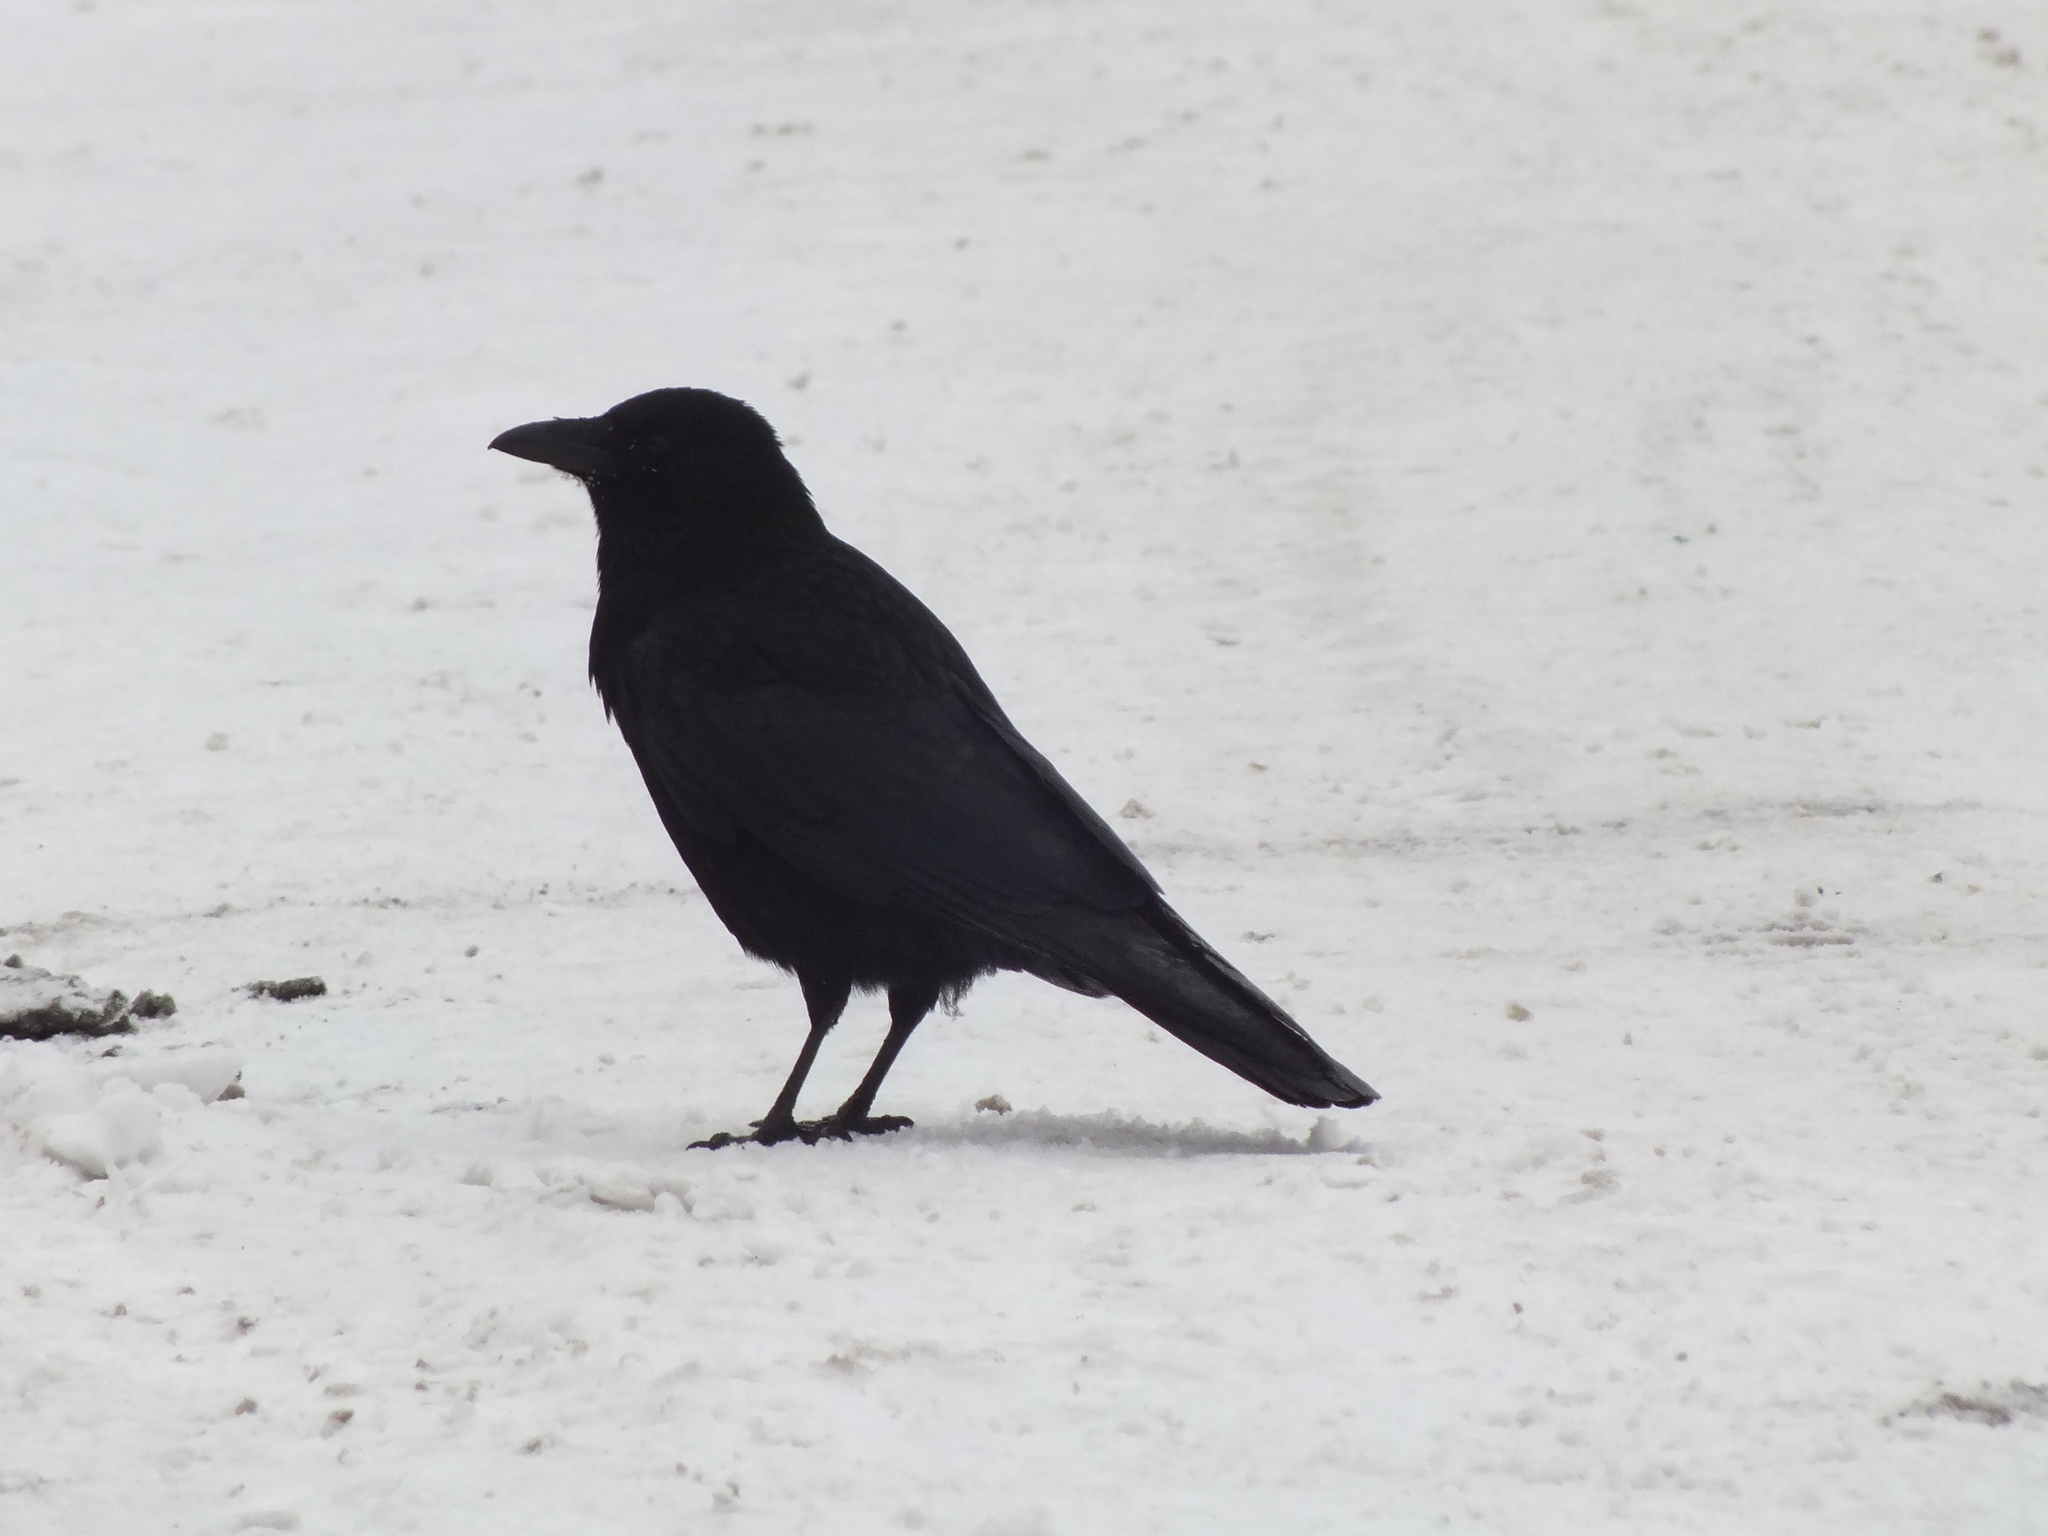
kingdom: Animalia
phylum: Chordata
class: Aves
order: Passeriformes
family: Corvidae
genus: Corvus
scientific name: Corvus corone
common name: Carrion crow
